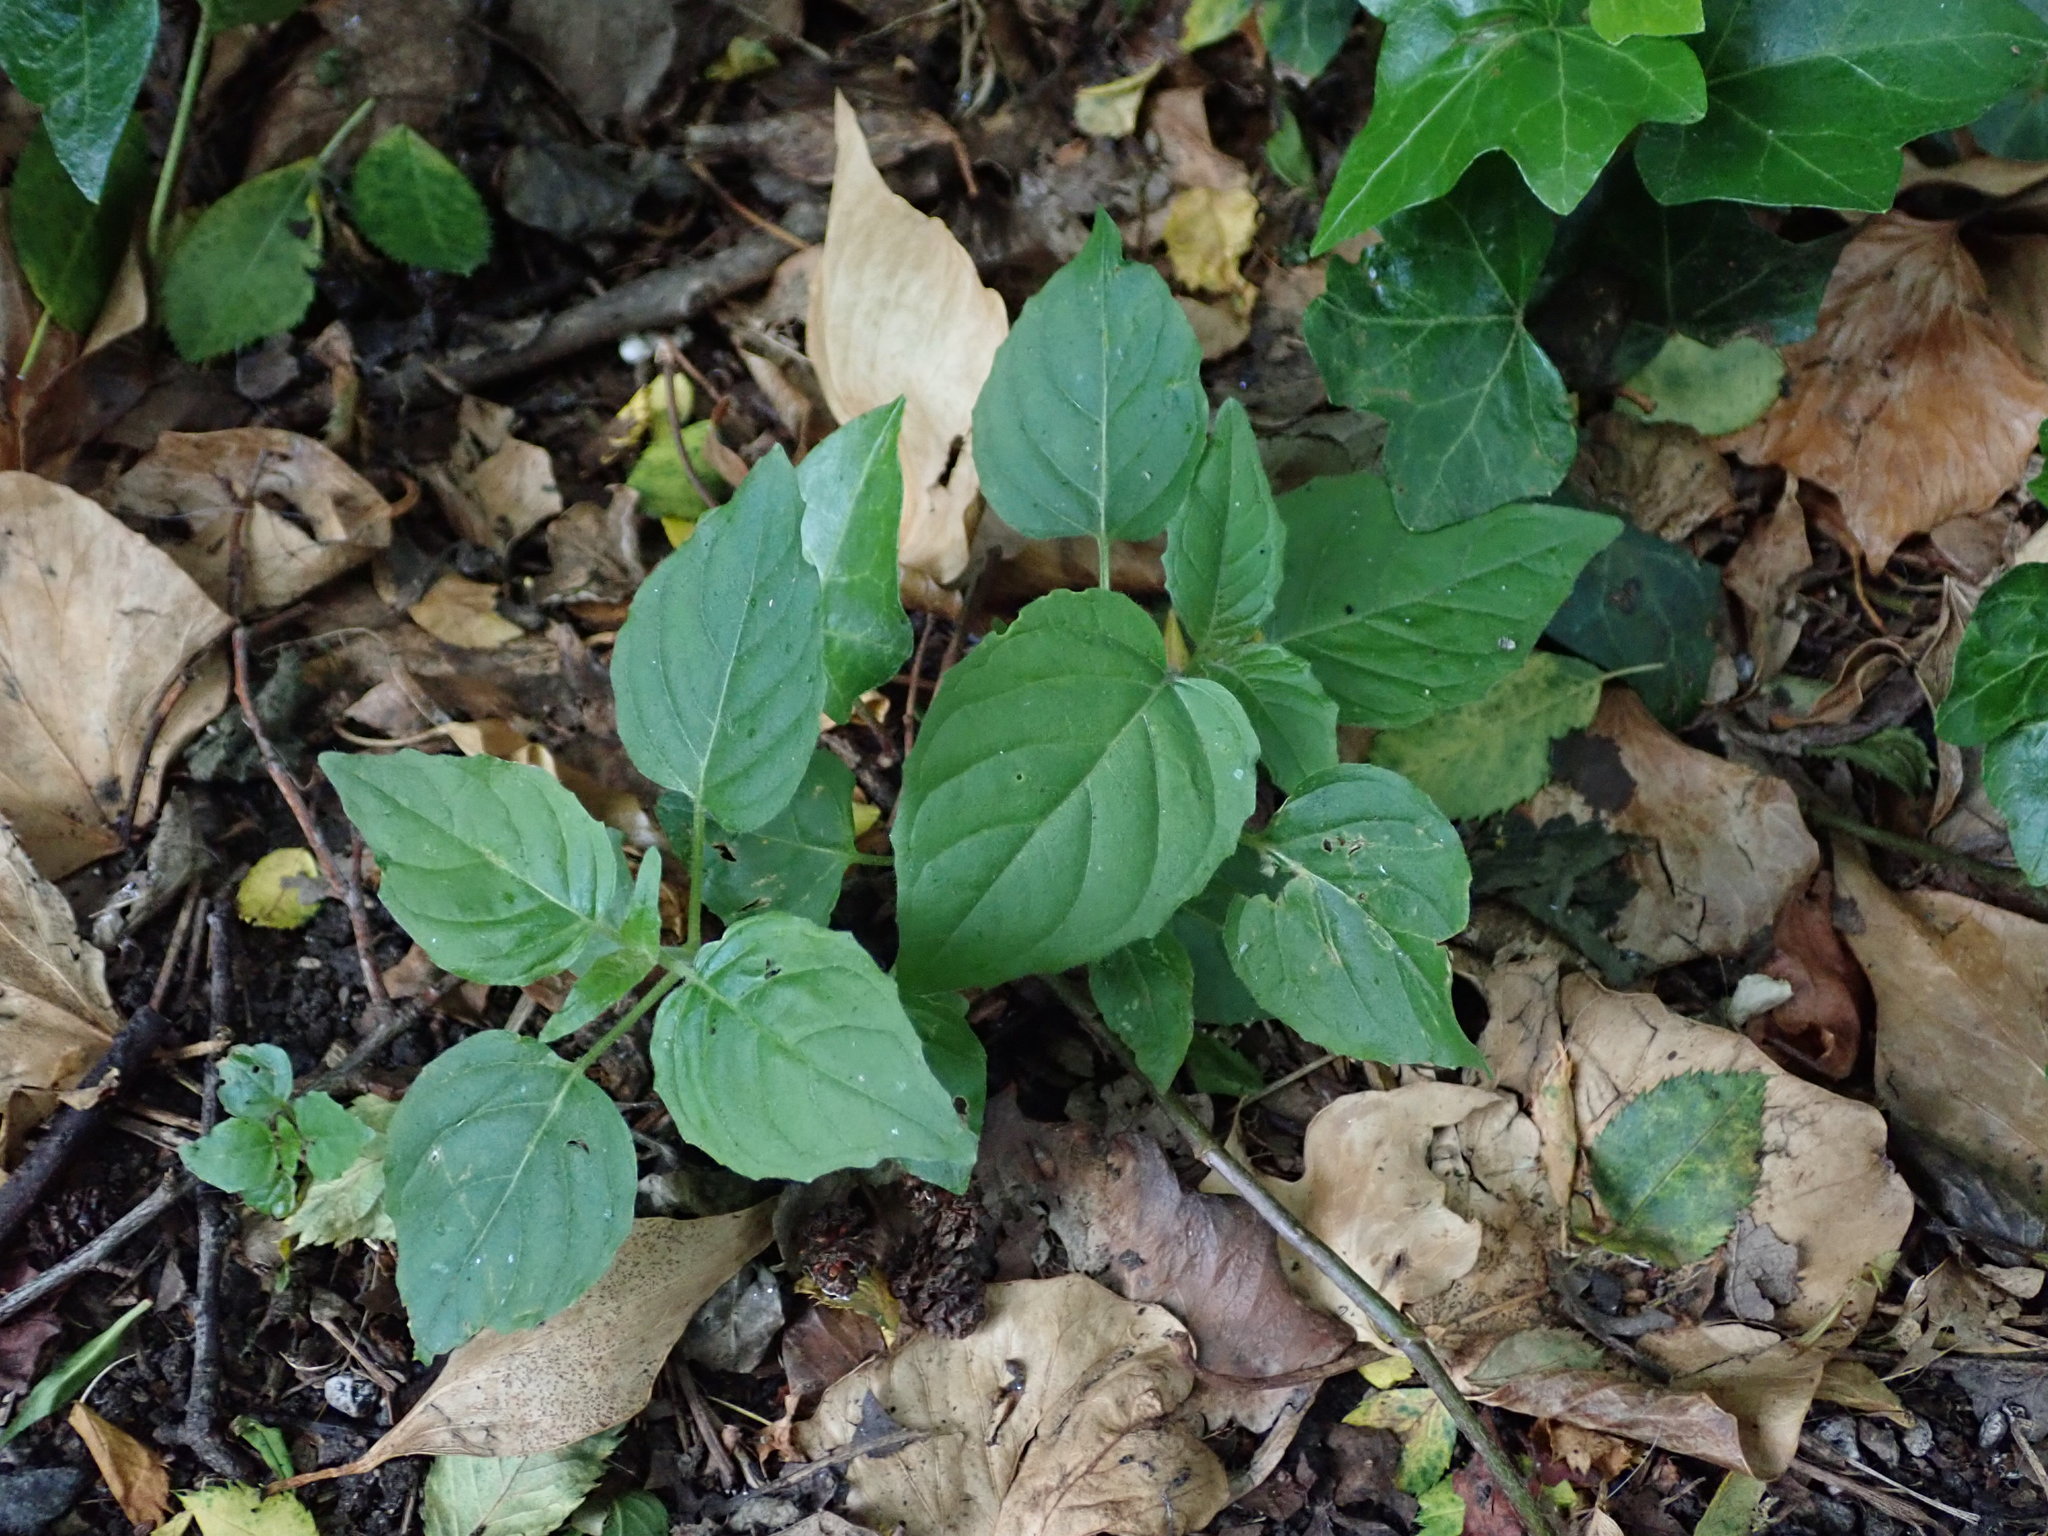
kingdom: Plantae
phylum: Tracheophyta
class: Magnoliopsida
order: Myrtales
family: Onagraceae
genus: Circaea
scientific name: Circaea lutetiana
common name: Enchanter's-nightshade
